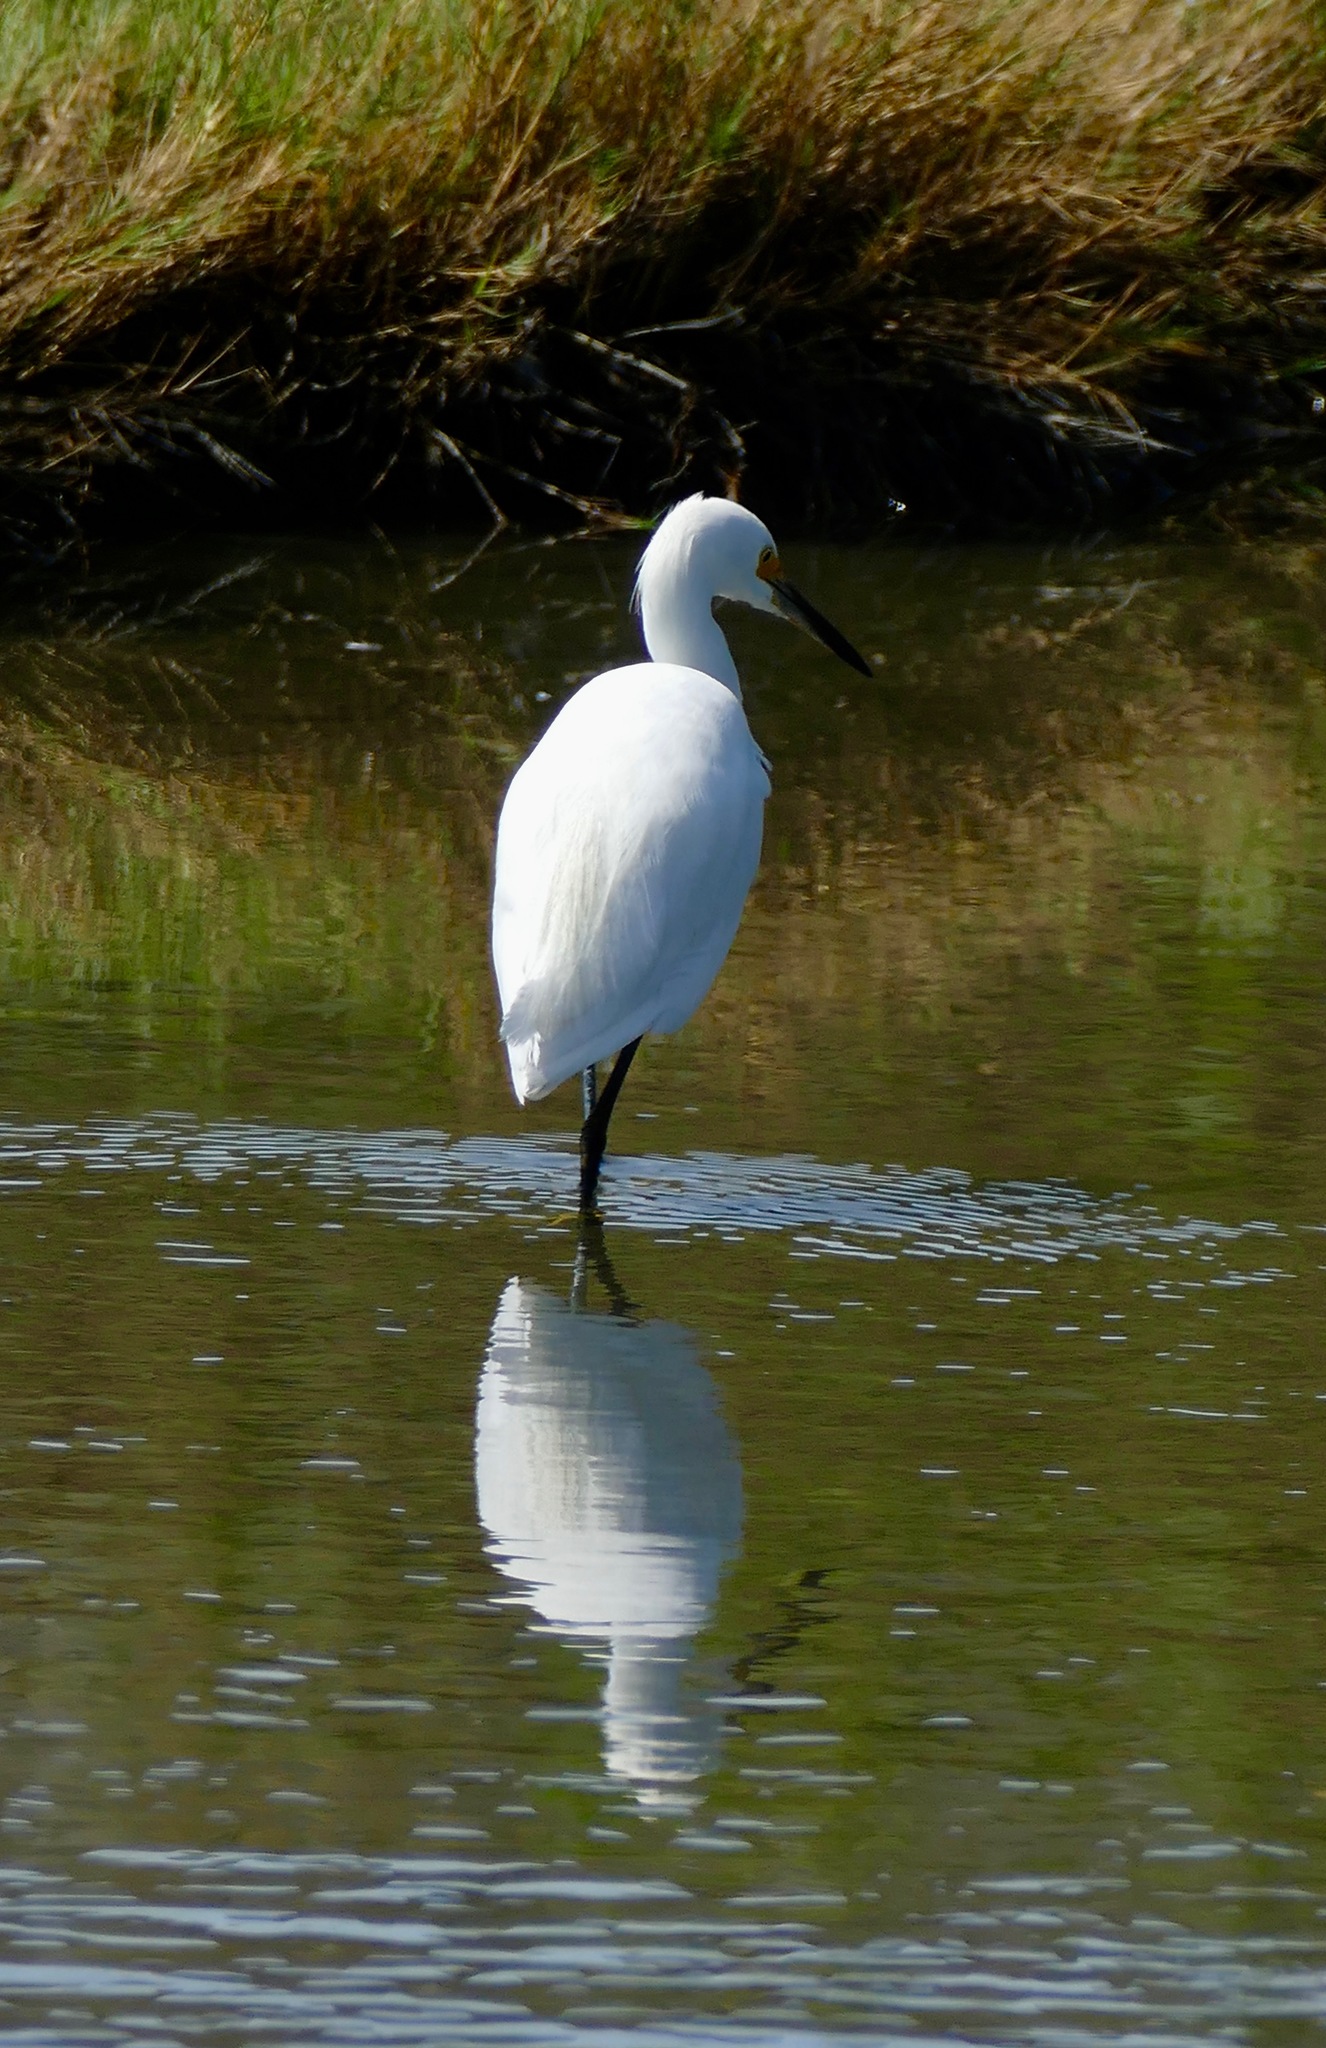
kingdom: Animalia
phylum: Chordata
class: Aves
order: Pelecaniformes
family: Ardeidae
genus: Egretta
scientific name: Egretta thula
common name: Snowy egret
